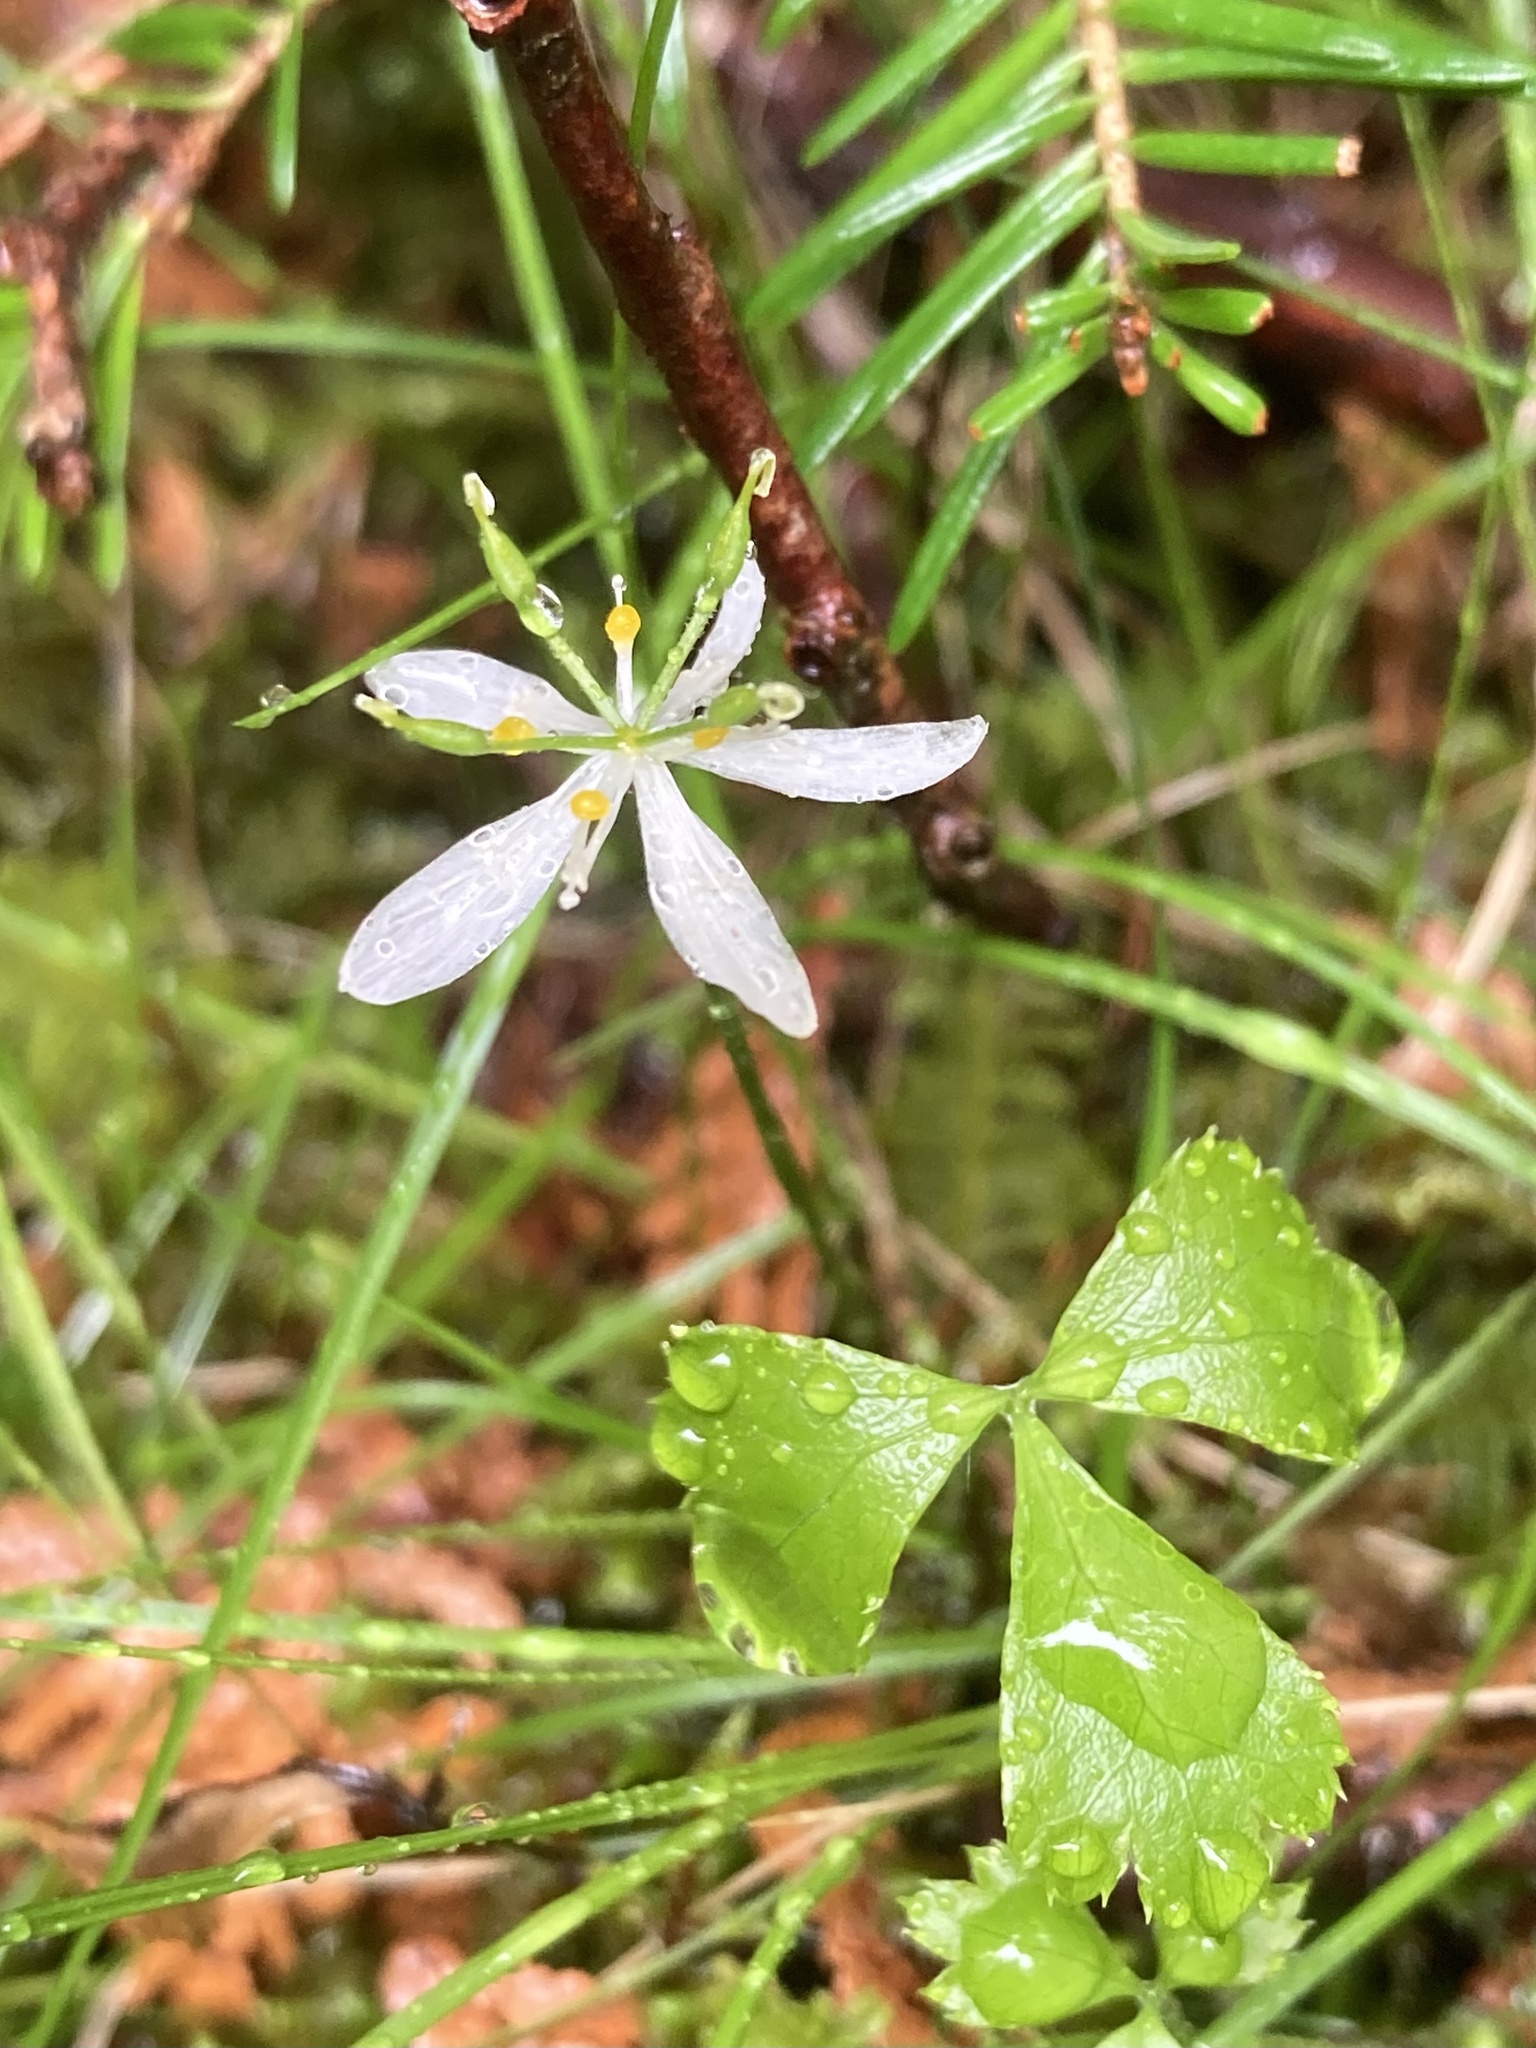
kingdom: Plantae
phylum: Tracheophyta
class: Magnoliopsida
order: Ranunculales
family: Ranunculaceae
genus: Coptis
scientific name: Coptis trifolia
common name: Canker-root
